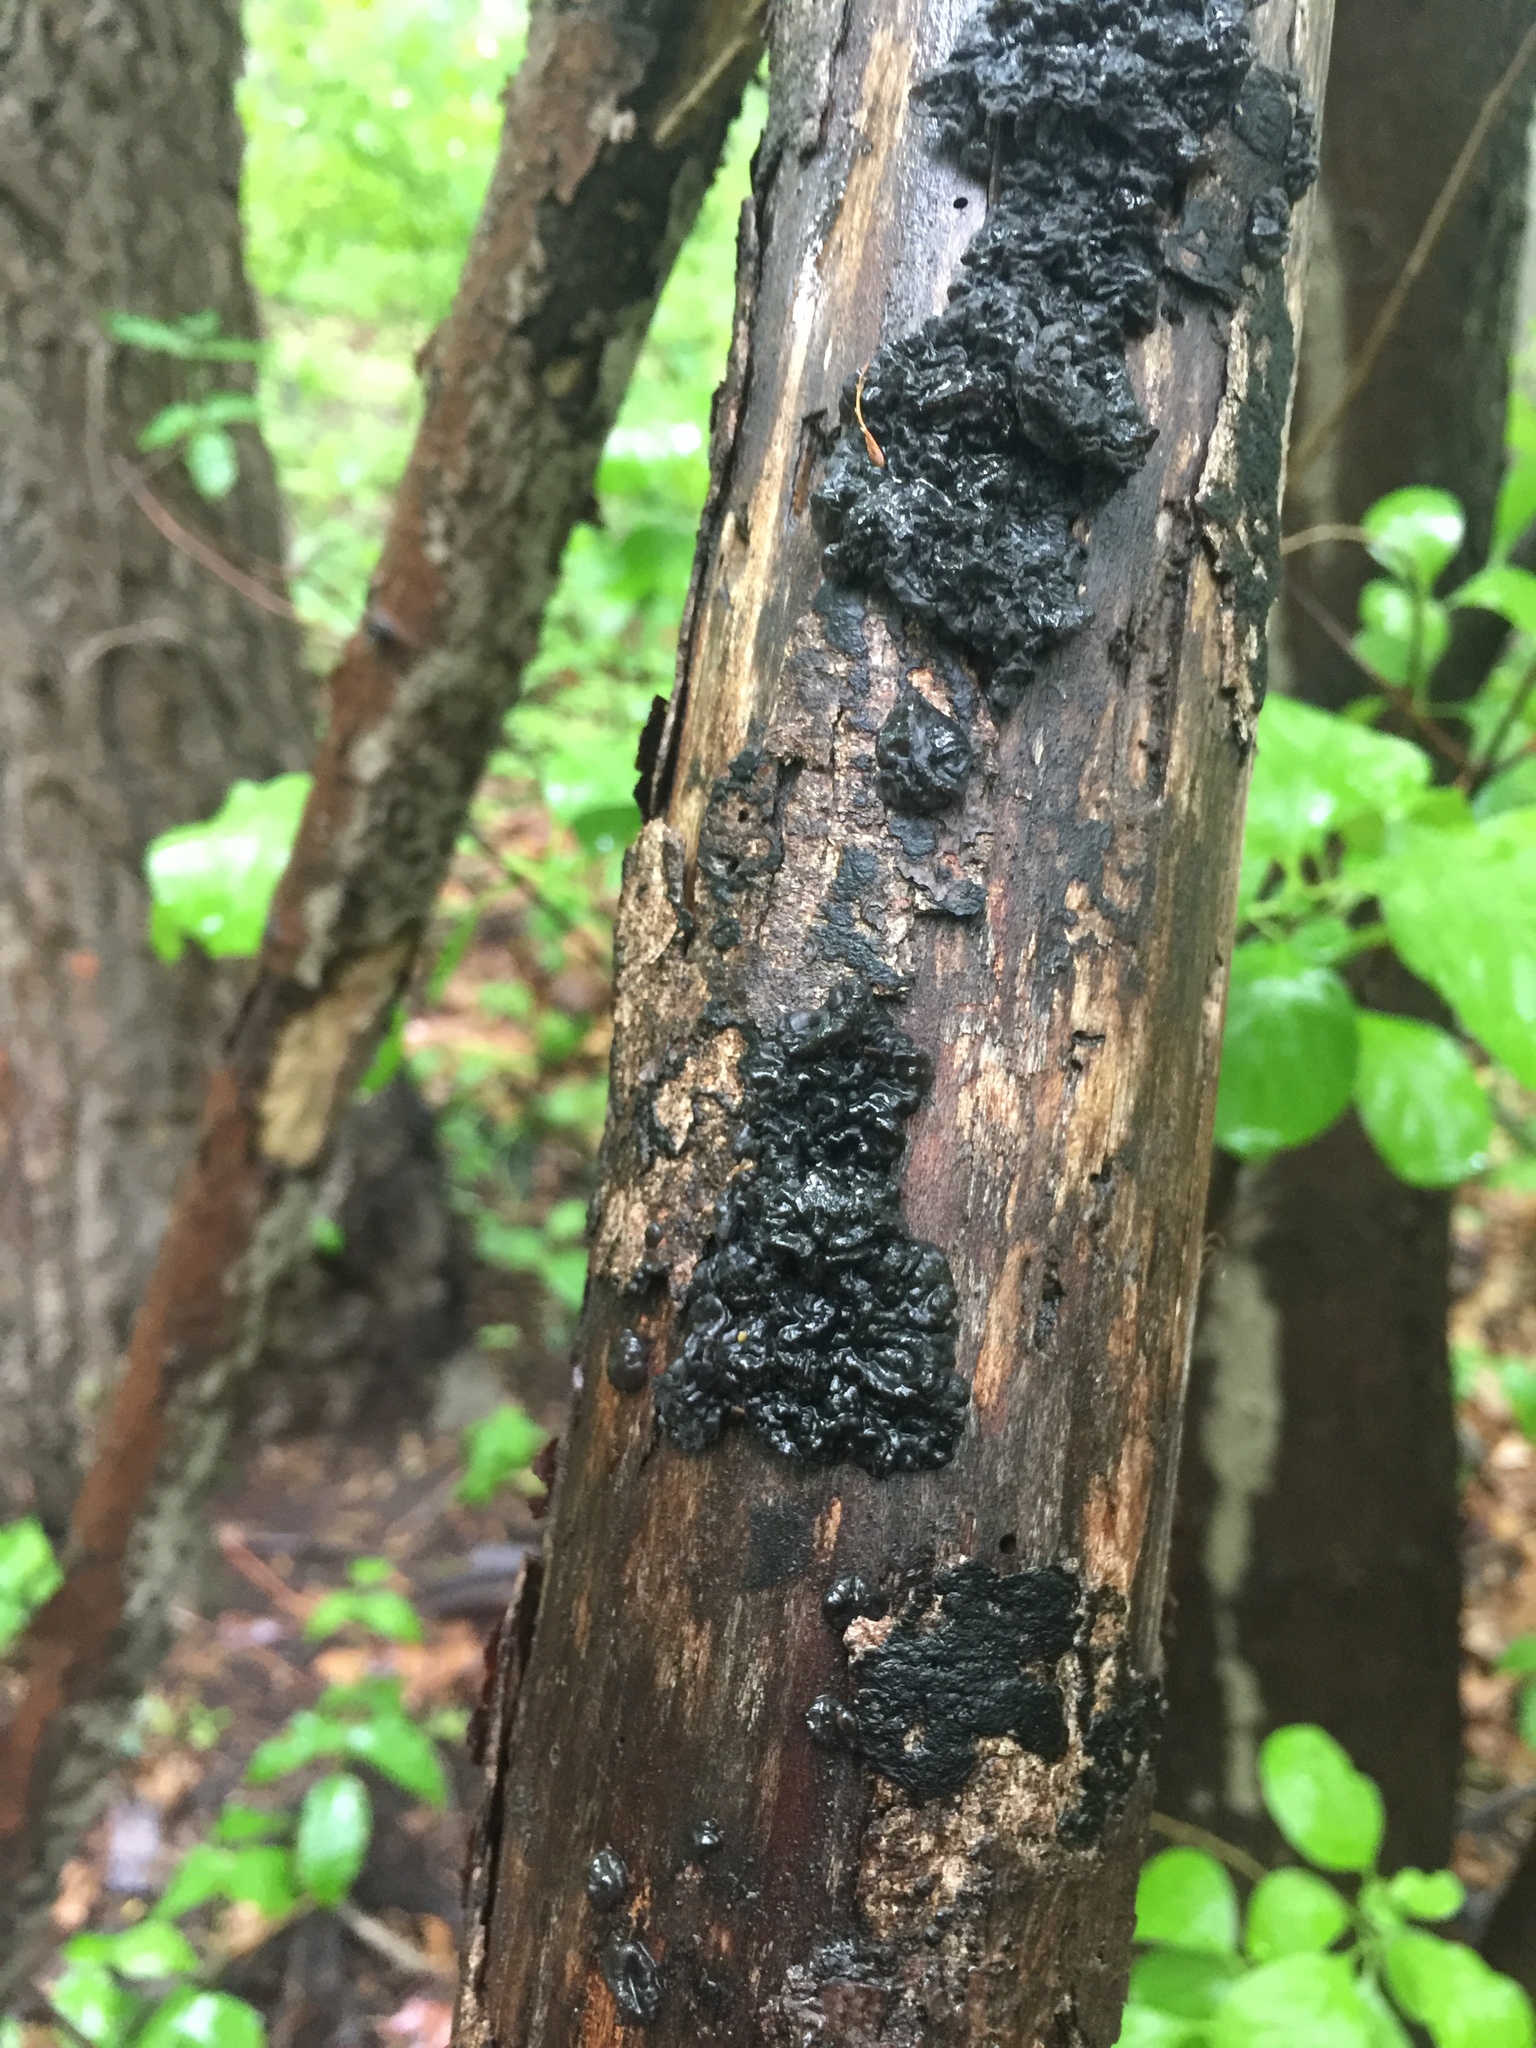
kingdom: Fungi
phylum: Basidiomycota
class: Agaricomycetes
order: Auriculariales
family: Auriculariaceae
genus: Exidia
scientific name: Exidia glandulosa
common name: Witches' butter
